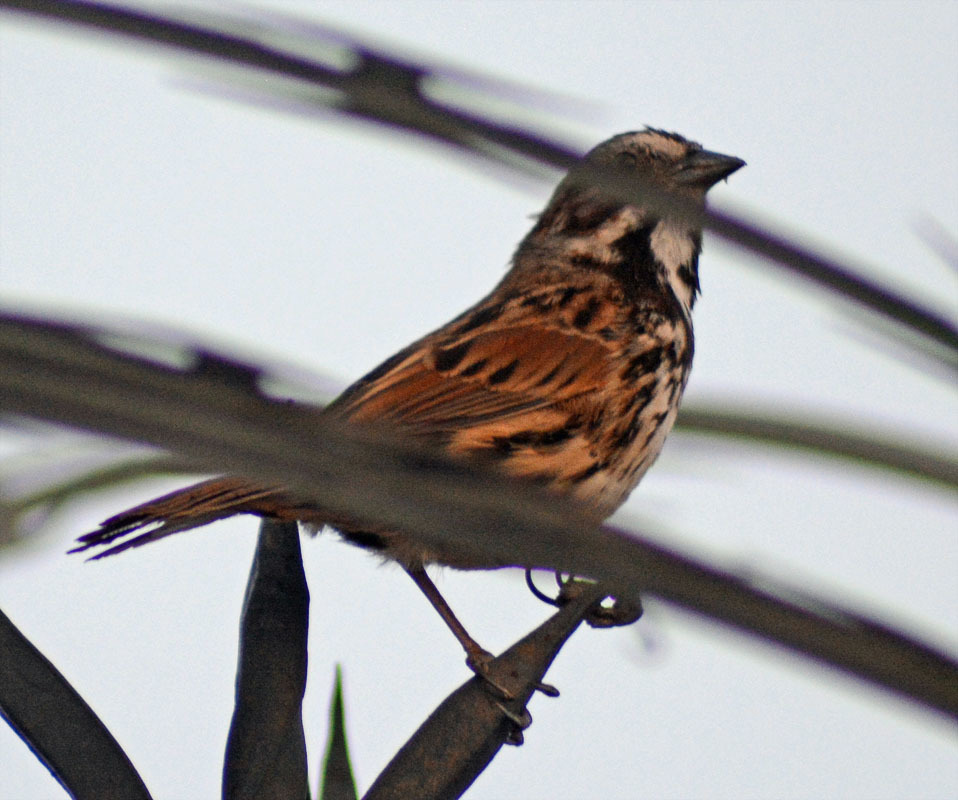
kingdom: Animalia
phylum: Chordata
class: Aves
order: Passeriformes
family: Passerellidae
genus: Melospiza
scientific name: Melospiza melodia
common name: Song sparrow
